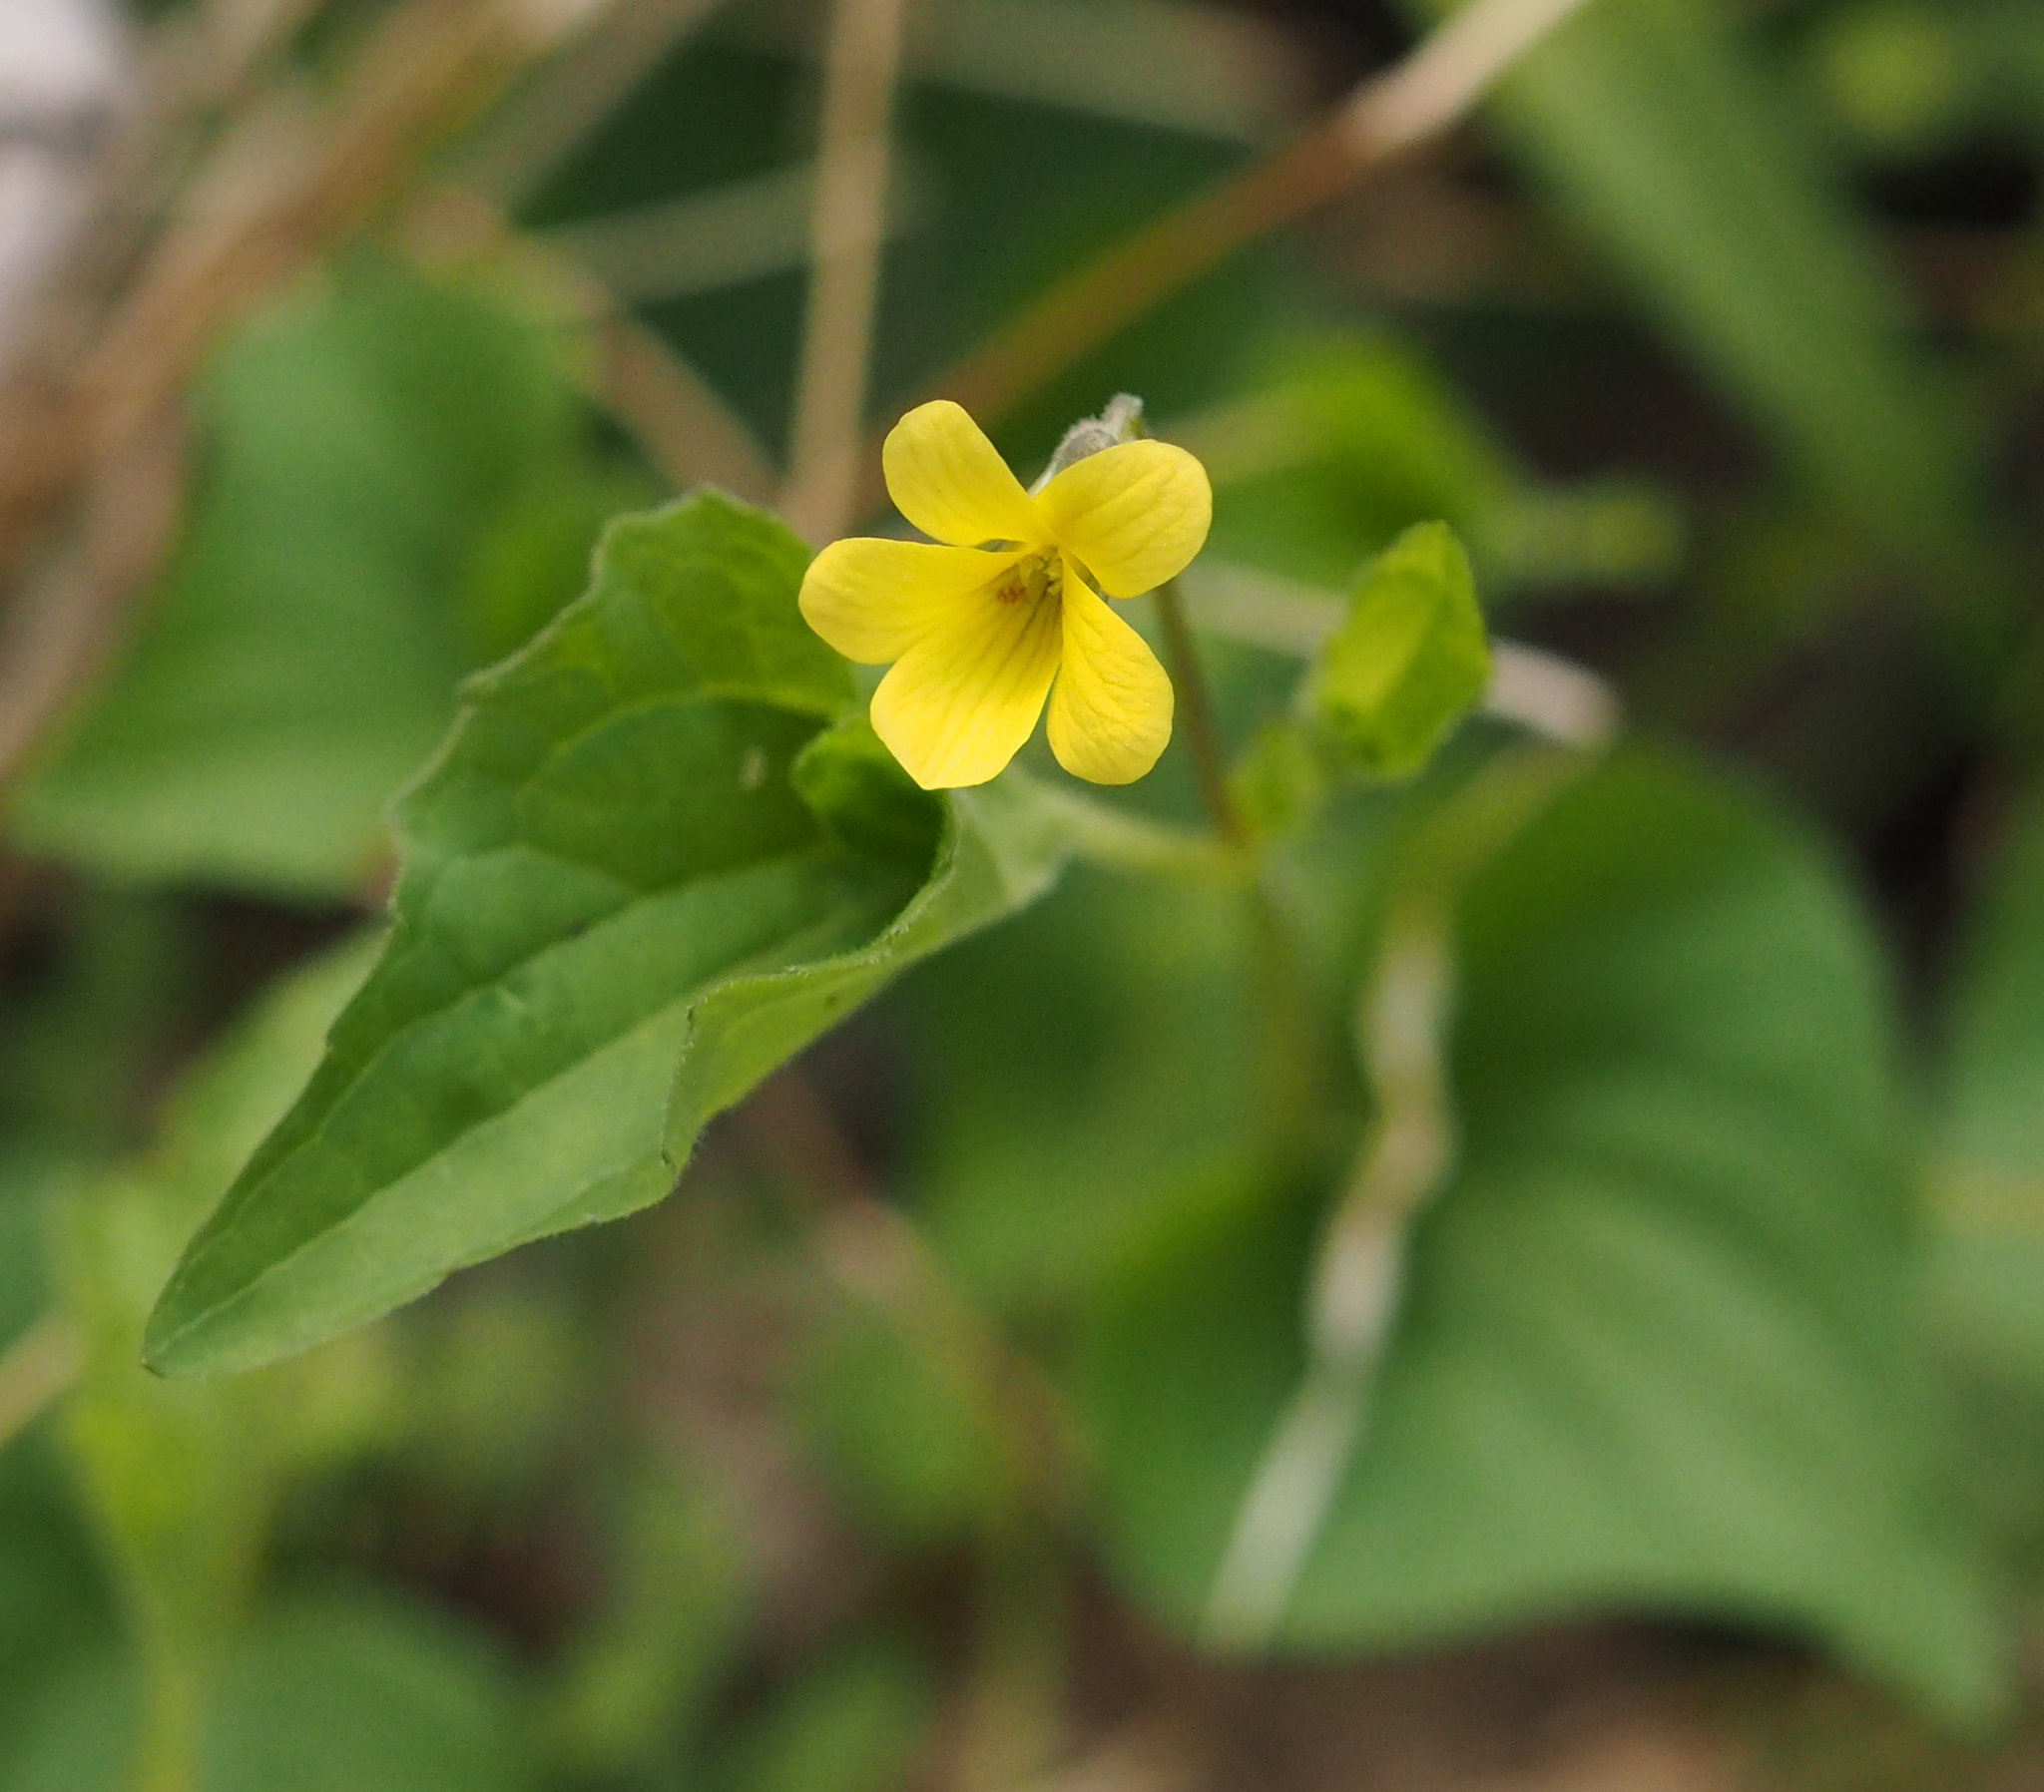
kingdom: Plantae
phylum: Tracheophyta
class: Magnoliopsida
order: Malpighiales
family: Violaceae
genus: Viola
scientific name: Viola eriocarpa
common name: Smooth yellow violet
